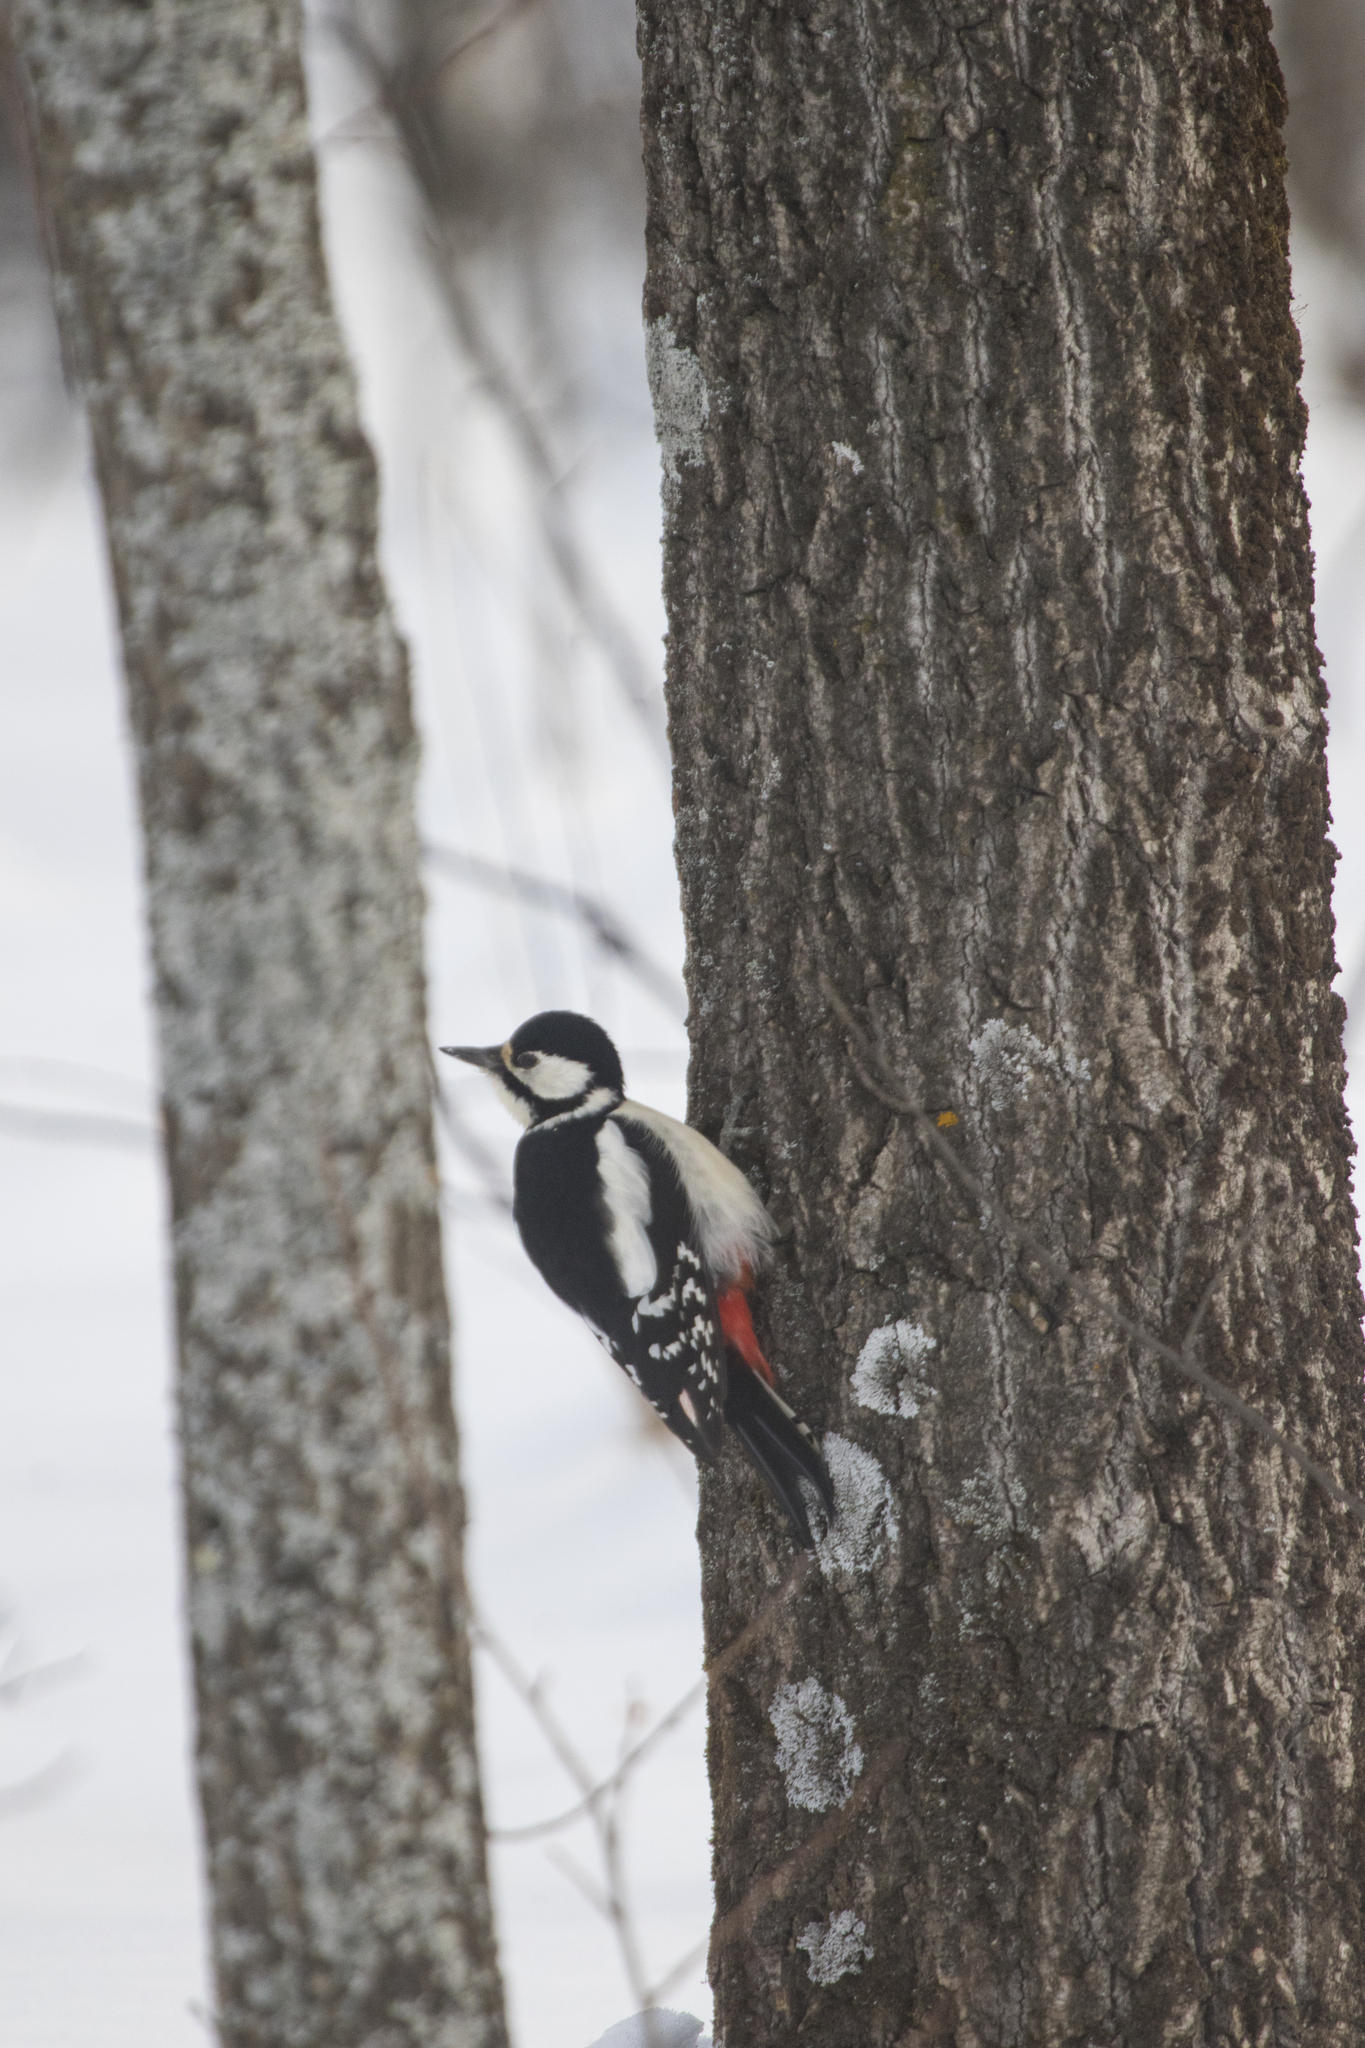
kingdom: Animalia
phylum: Chordata
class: Aves
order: Piciformes
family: Picidae
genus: Dendrocopos
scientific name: Dendrocopos major
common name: Great spotted woodpecker
